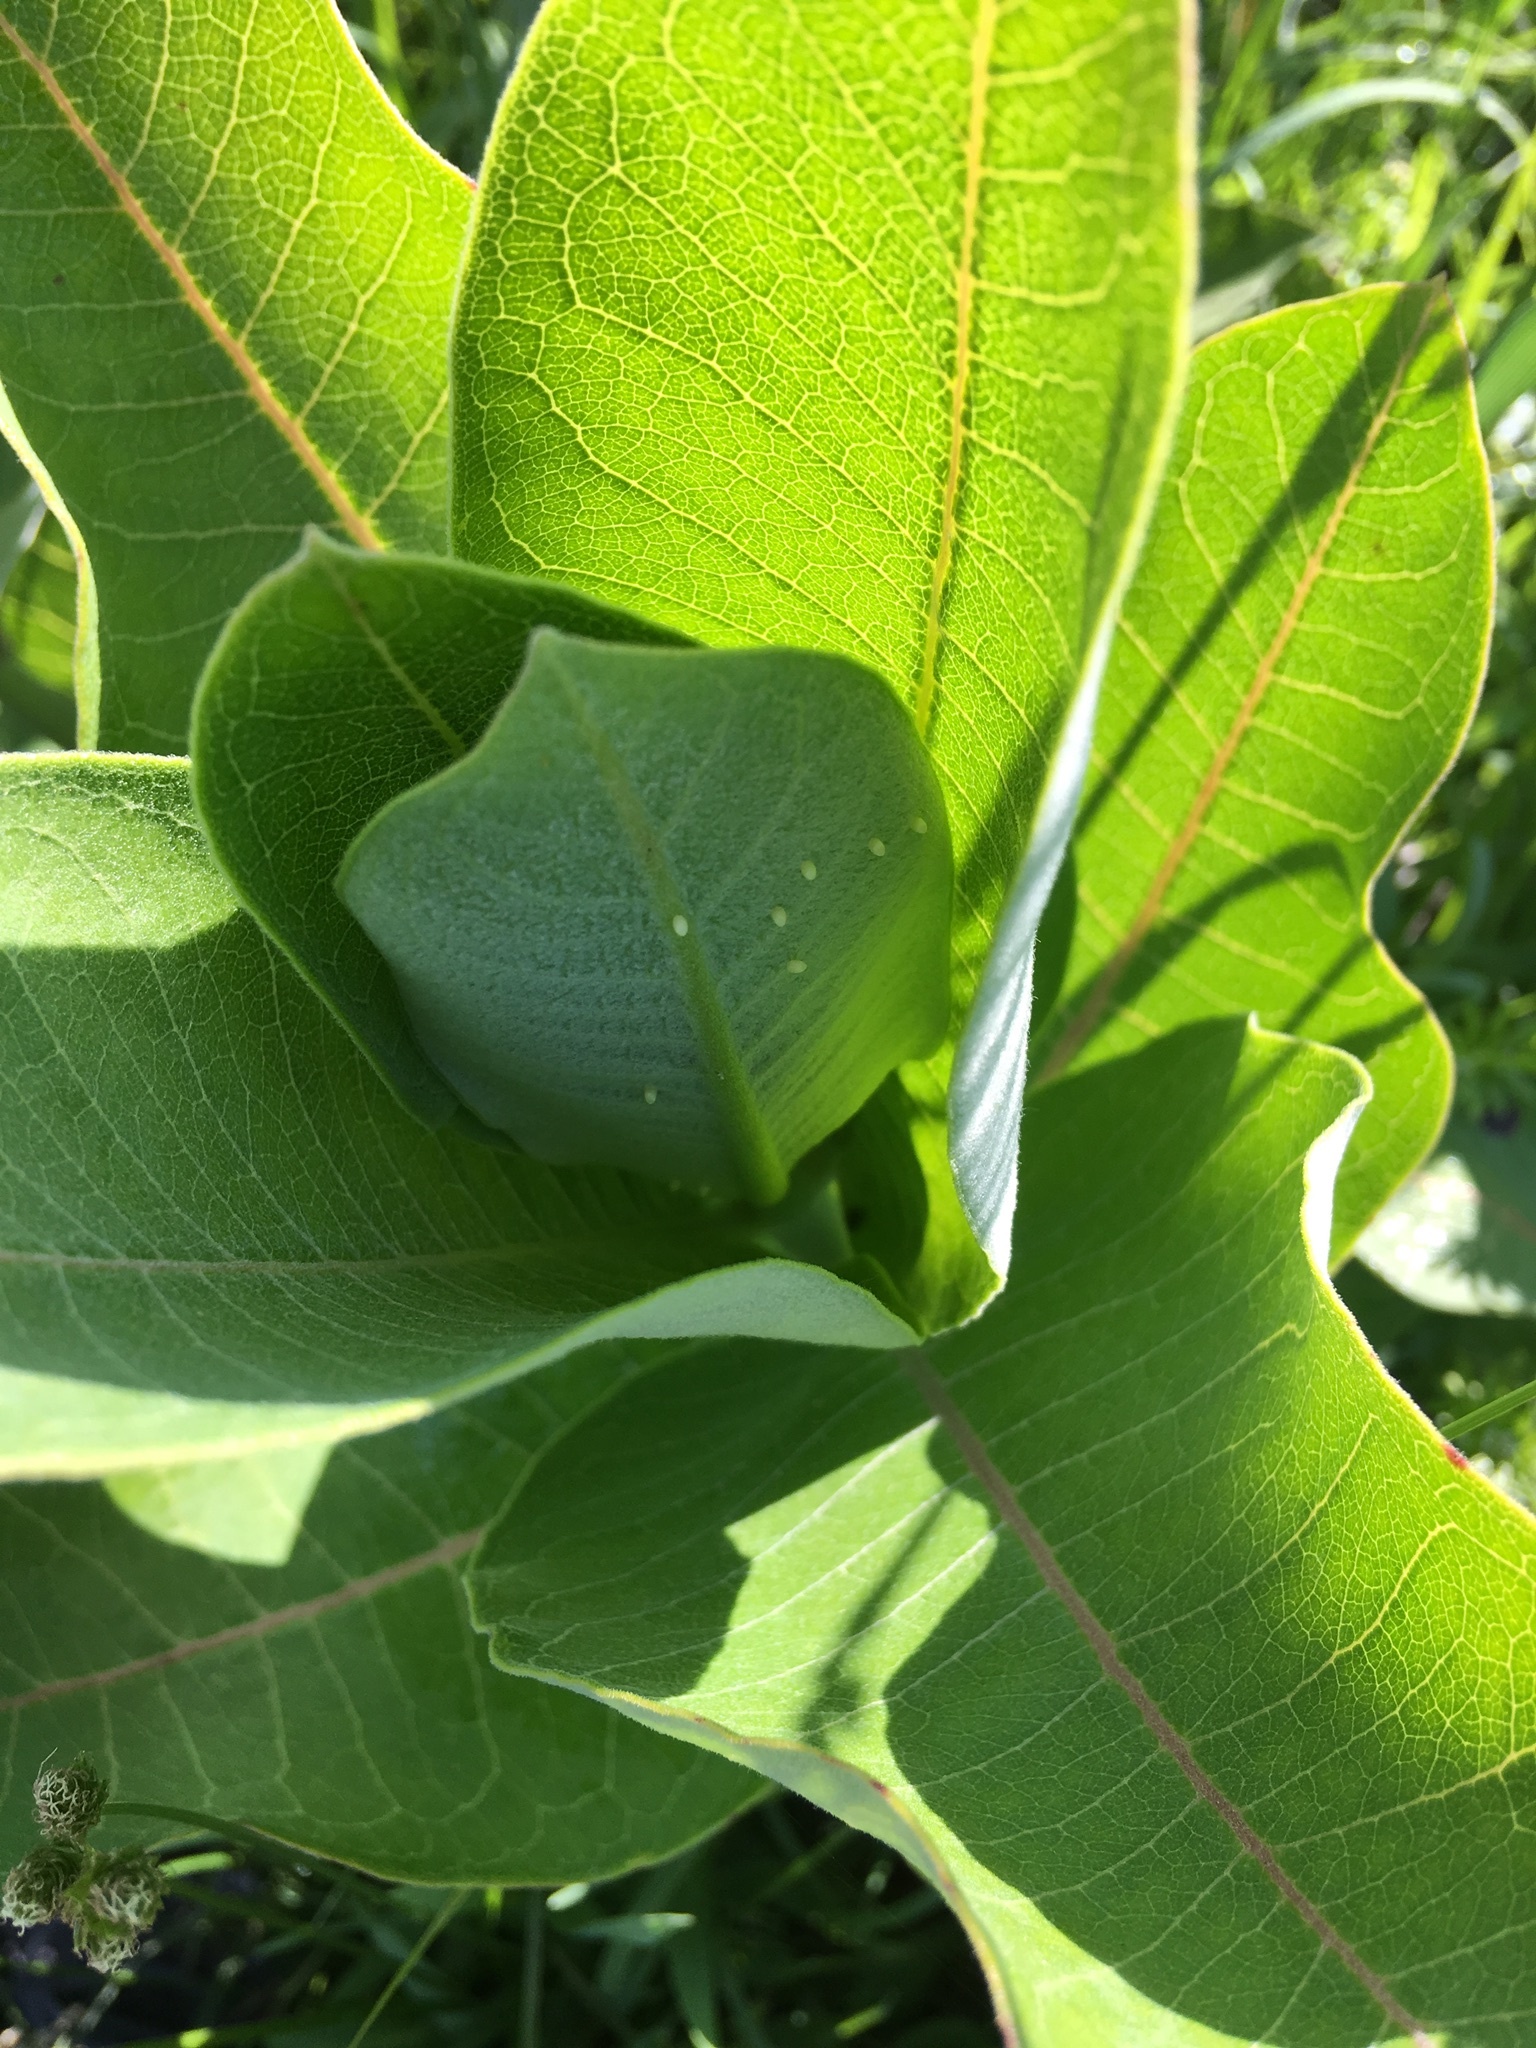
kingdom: Animalia
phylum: Arthropoda
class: Insecta
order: Lepidoptera
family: Nymphalidae
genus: Danaus
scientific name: Danaus plexippus
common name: Monarch
